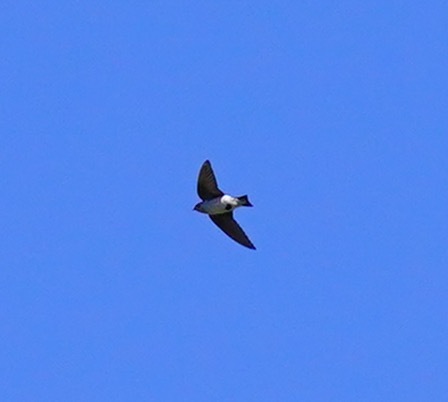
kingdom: Animalia
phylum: Chordata
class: Aves
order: Passeriformes
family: Hirundinidae
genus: Tachycineta
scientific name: Tachycineta bicolor
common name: Tree swallow
